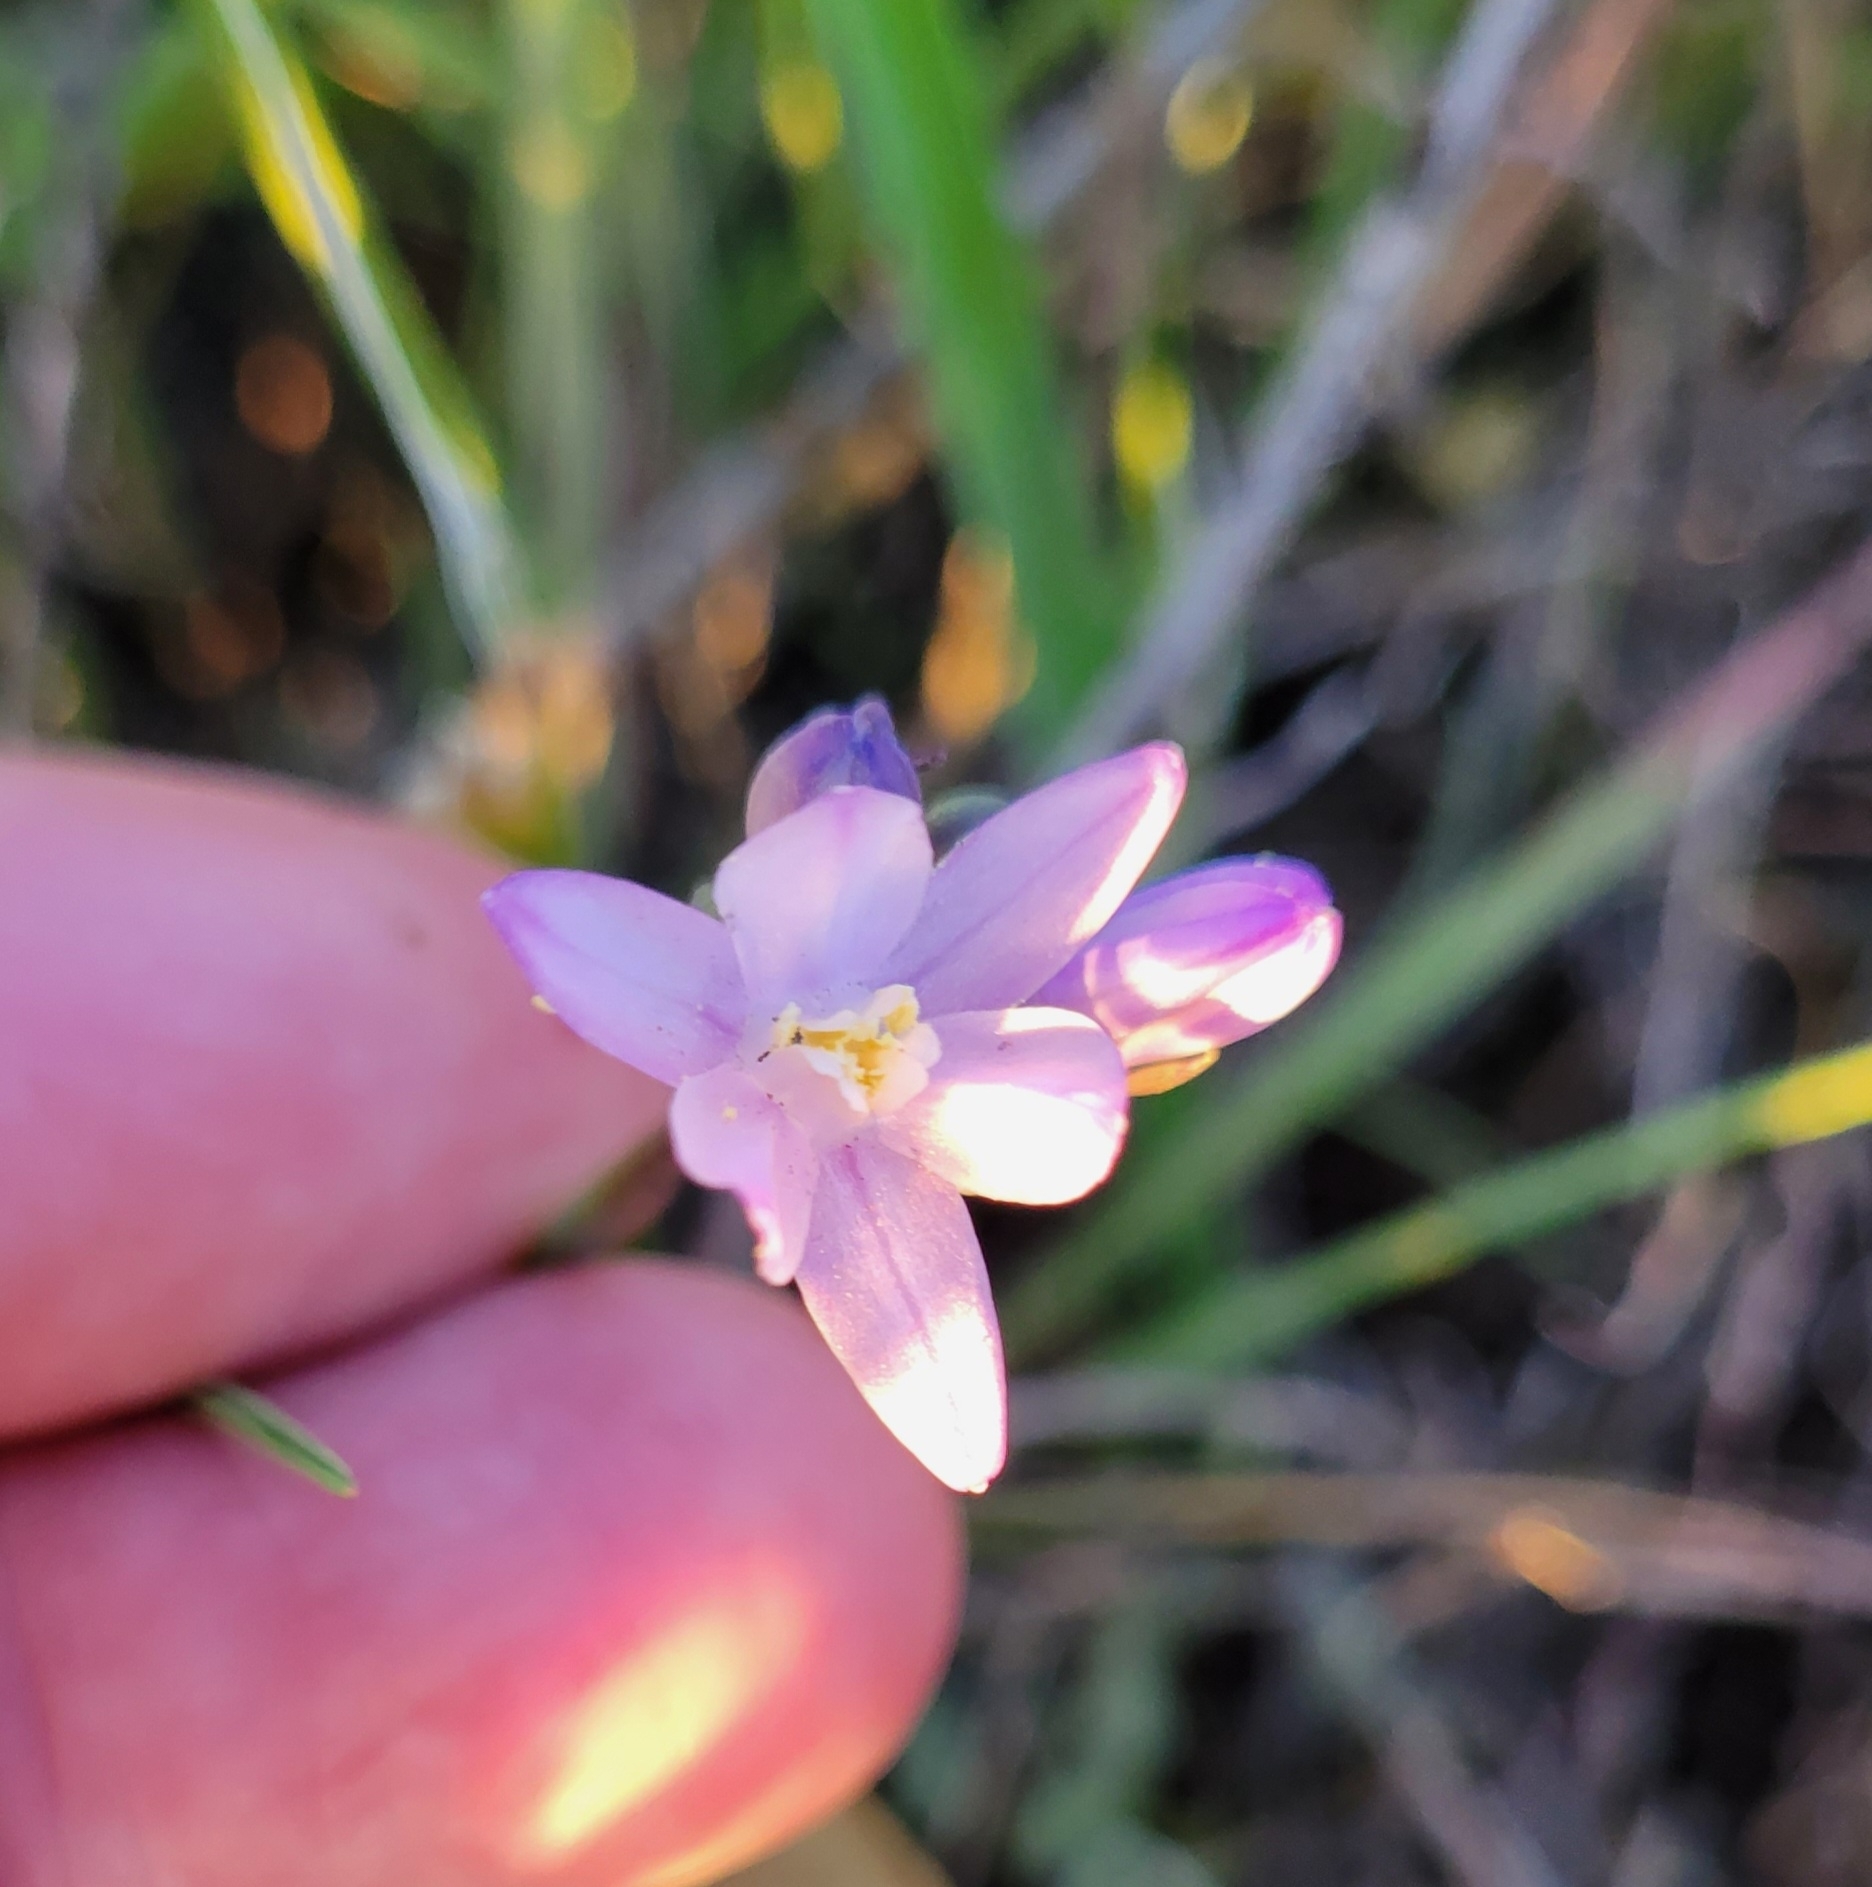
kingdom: Plantae
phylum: Tracheophyta
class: Liliopsida
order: Asparagales
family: Asparagaceae
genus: Dipterostemon
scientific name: Dipterostemon capitatus
